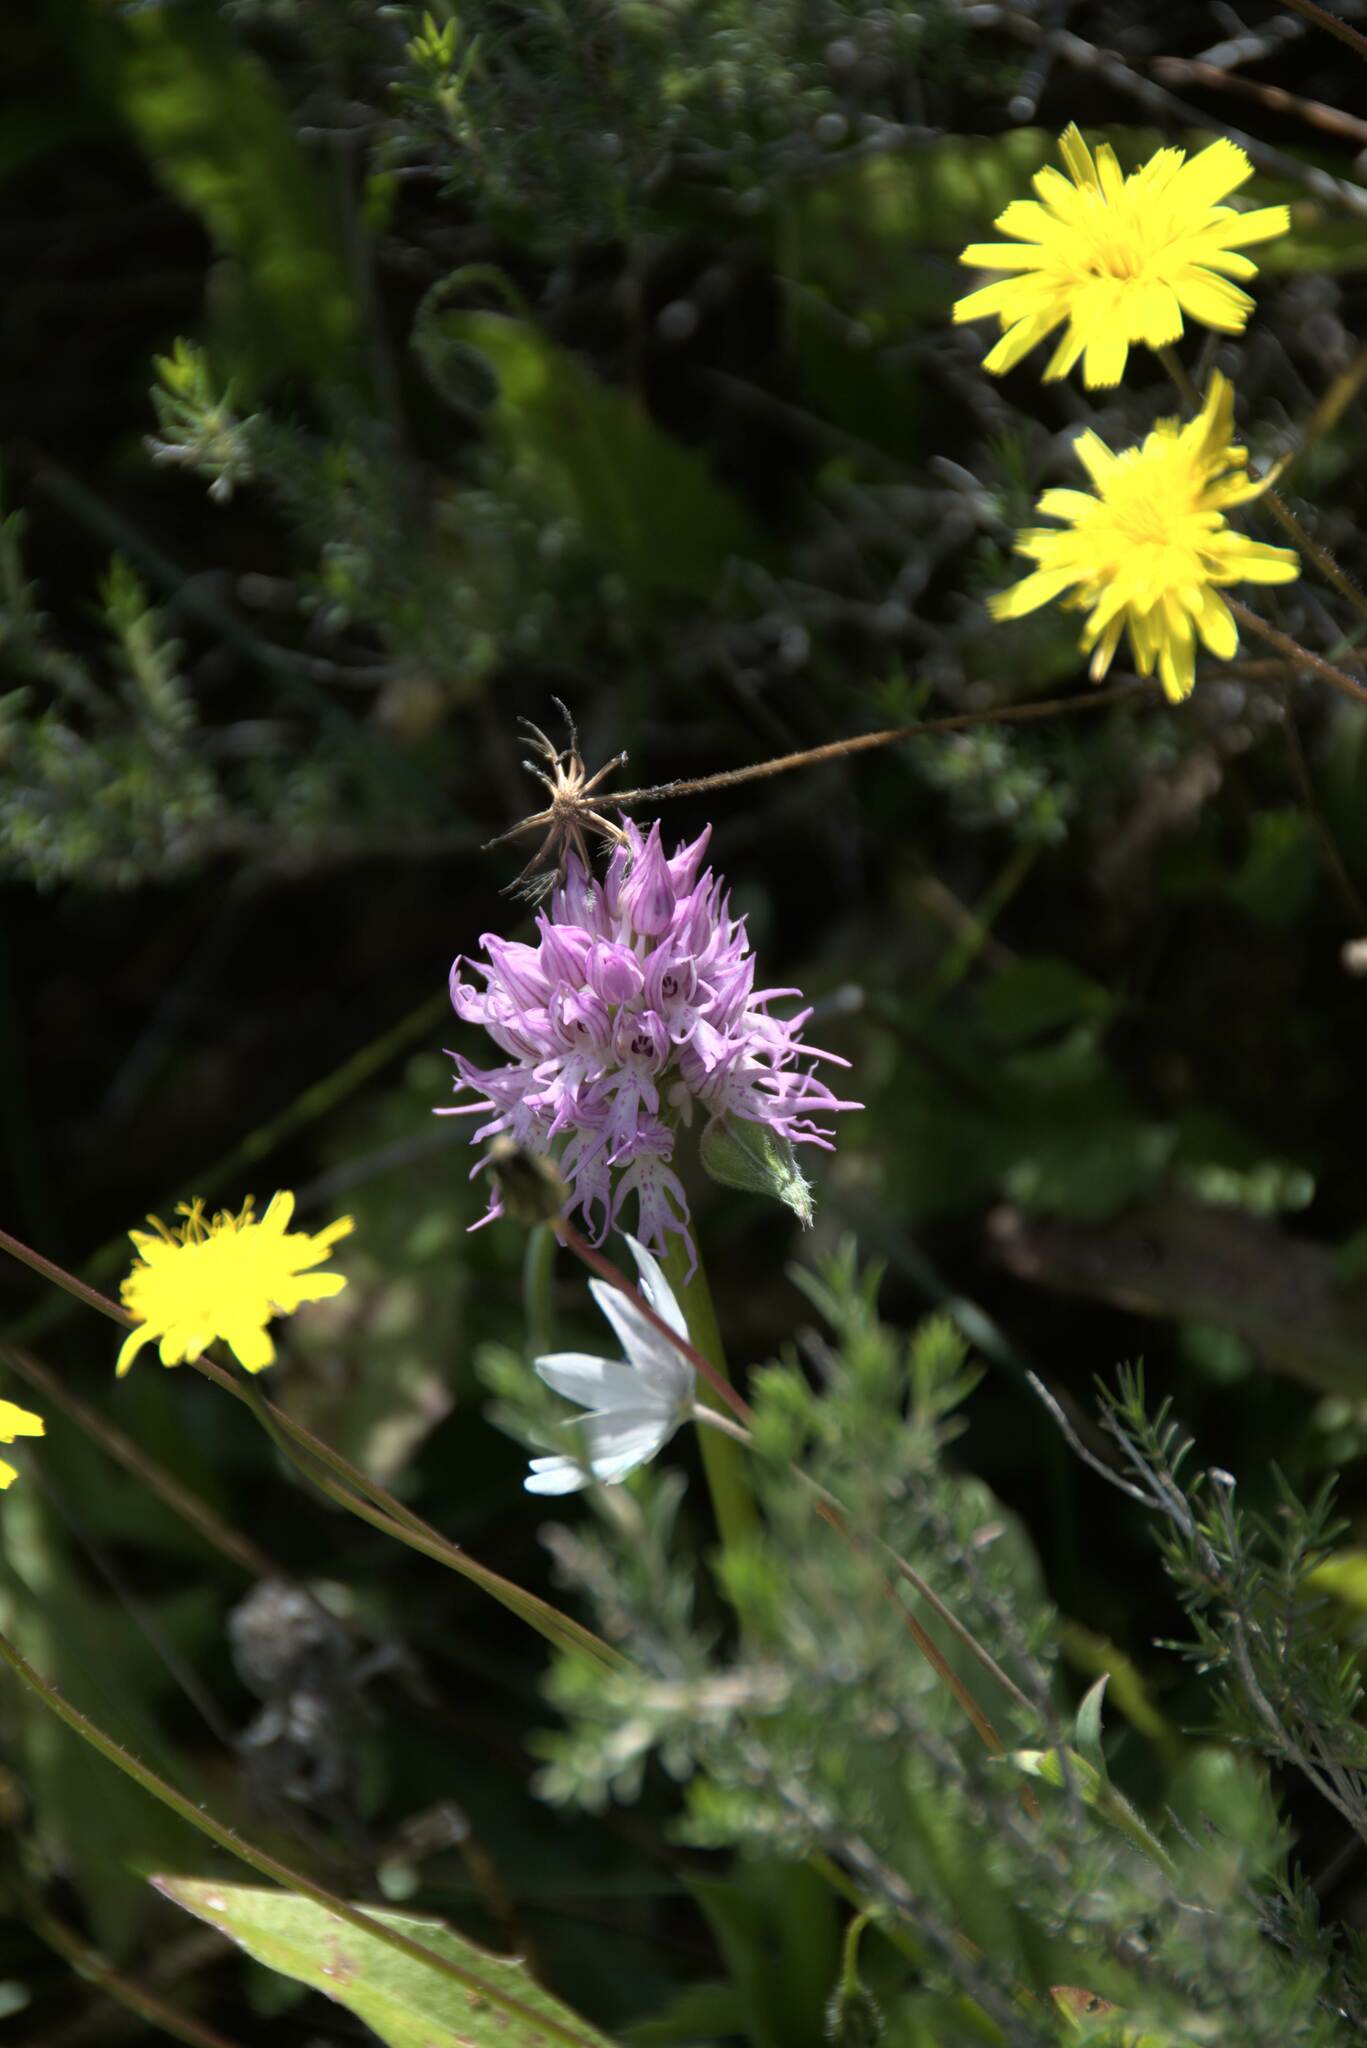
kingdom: Plantae
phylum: Tracheophyta
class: Liliopsida
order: Asparagales
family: Orchidaceae
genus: Orchis
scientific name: Orchis italica
